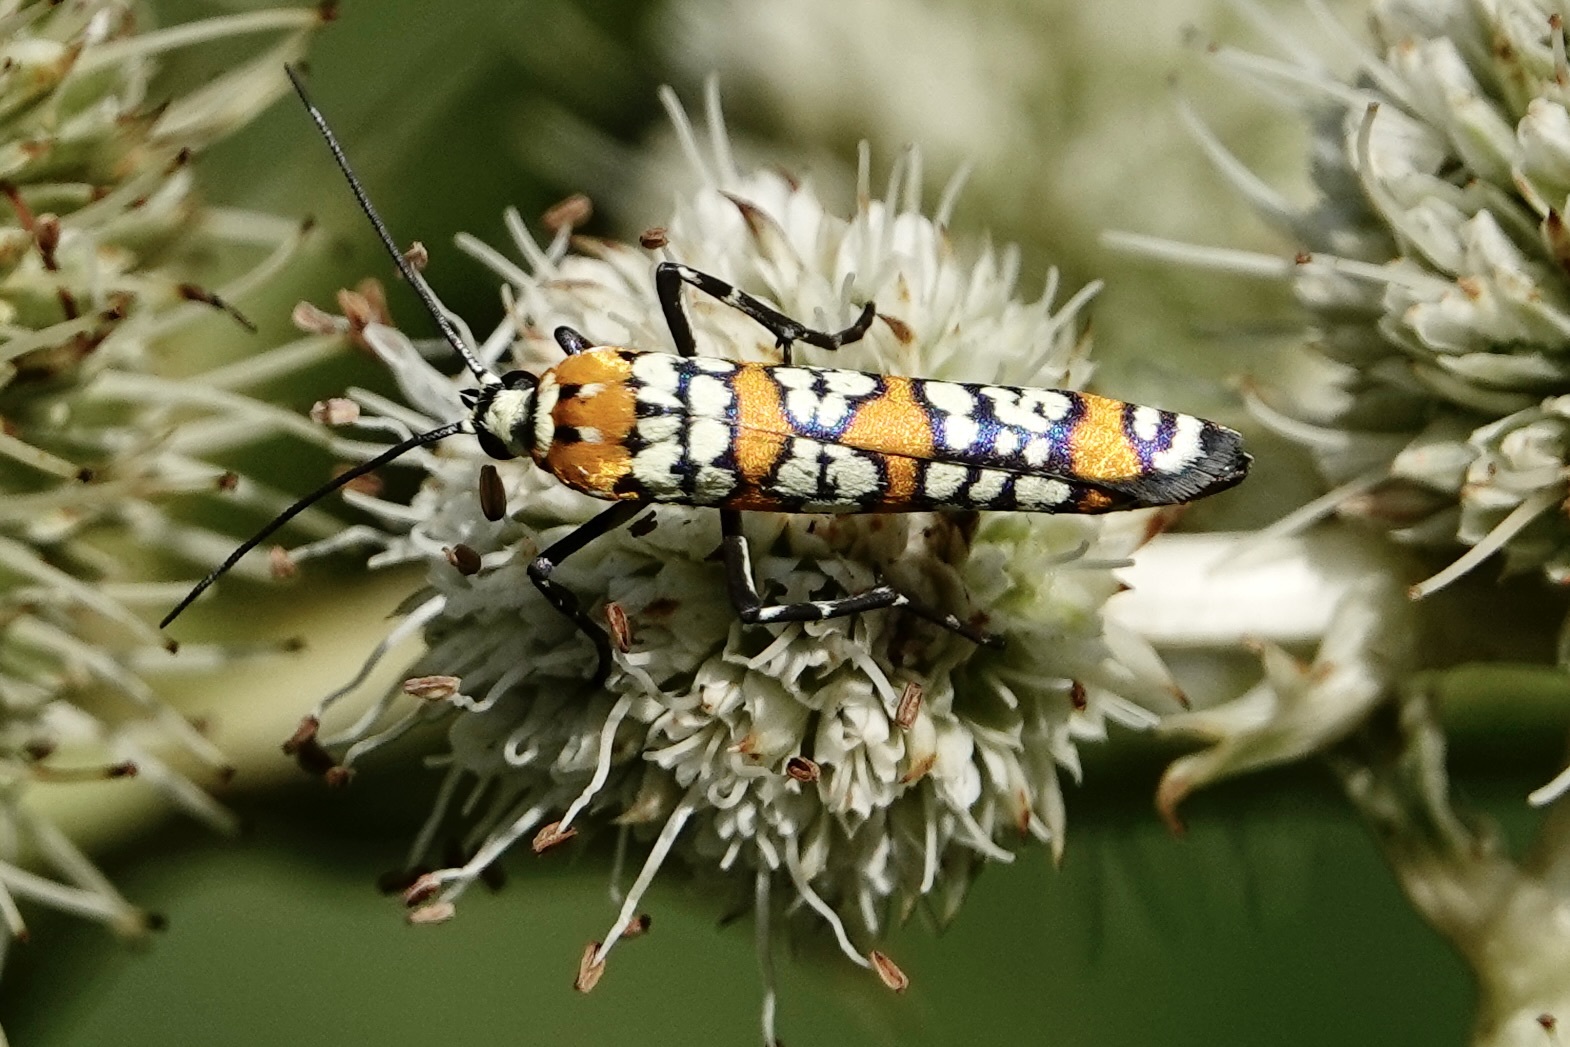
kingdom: Animalia
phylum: Arthropoda
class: Insecta
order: Lepidoptera
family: Attevidae
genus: Atteva
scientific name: Atteva punctella
